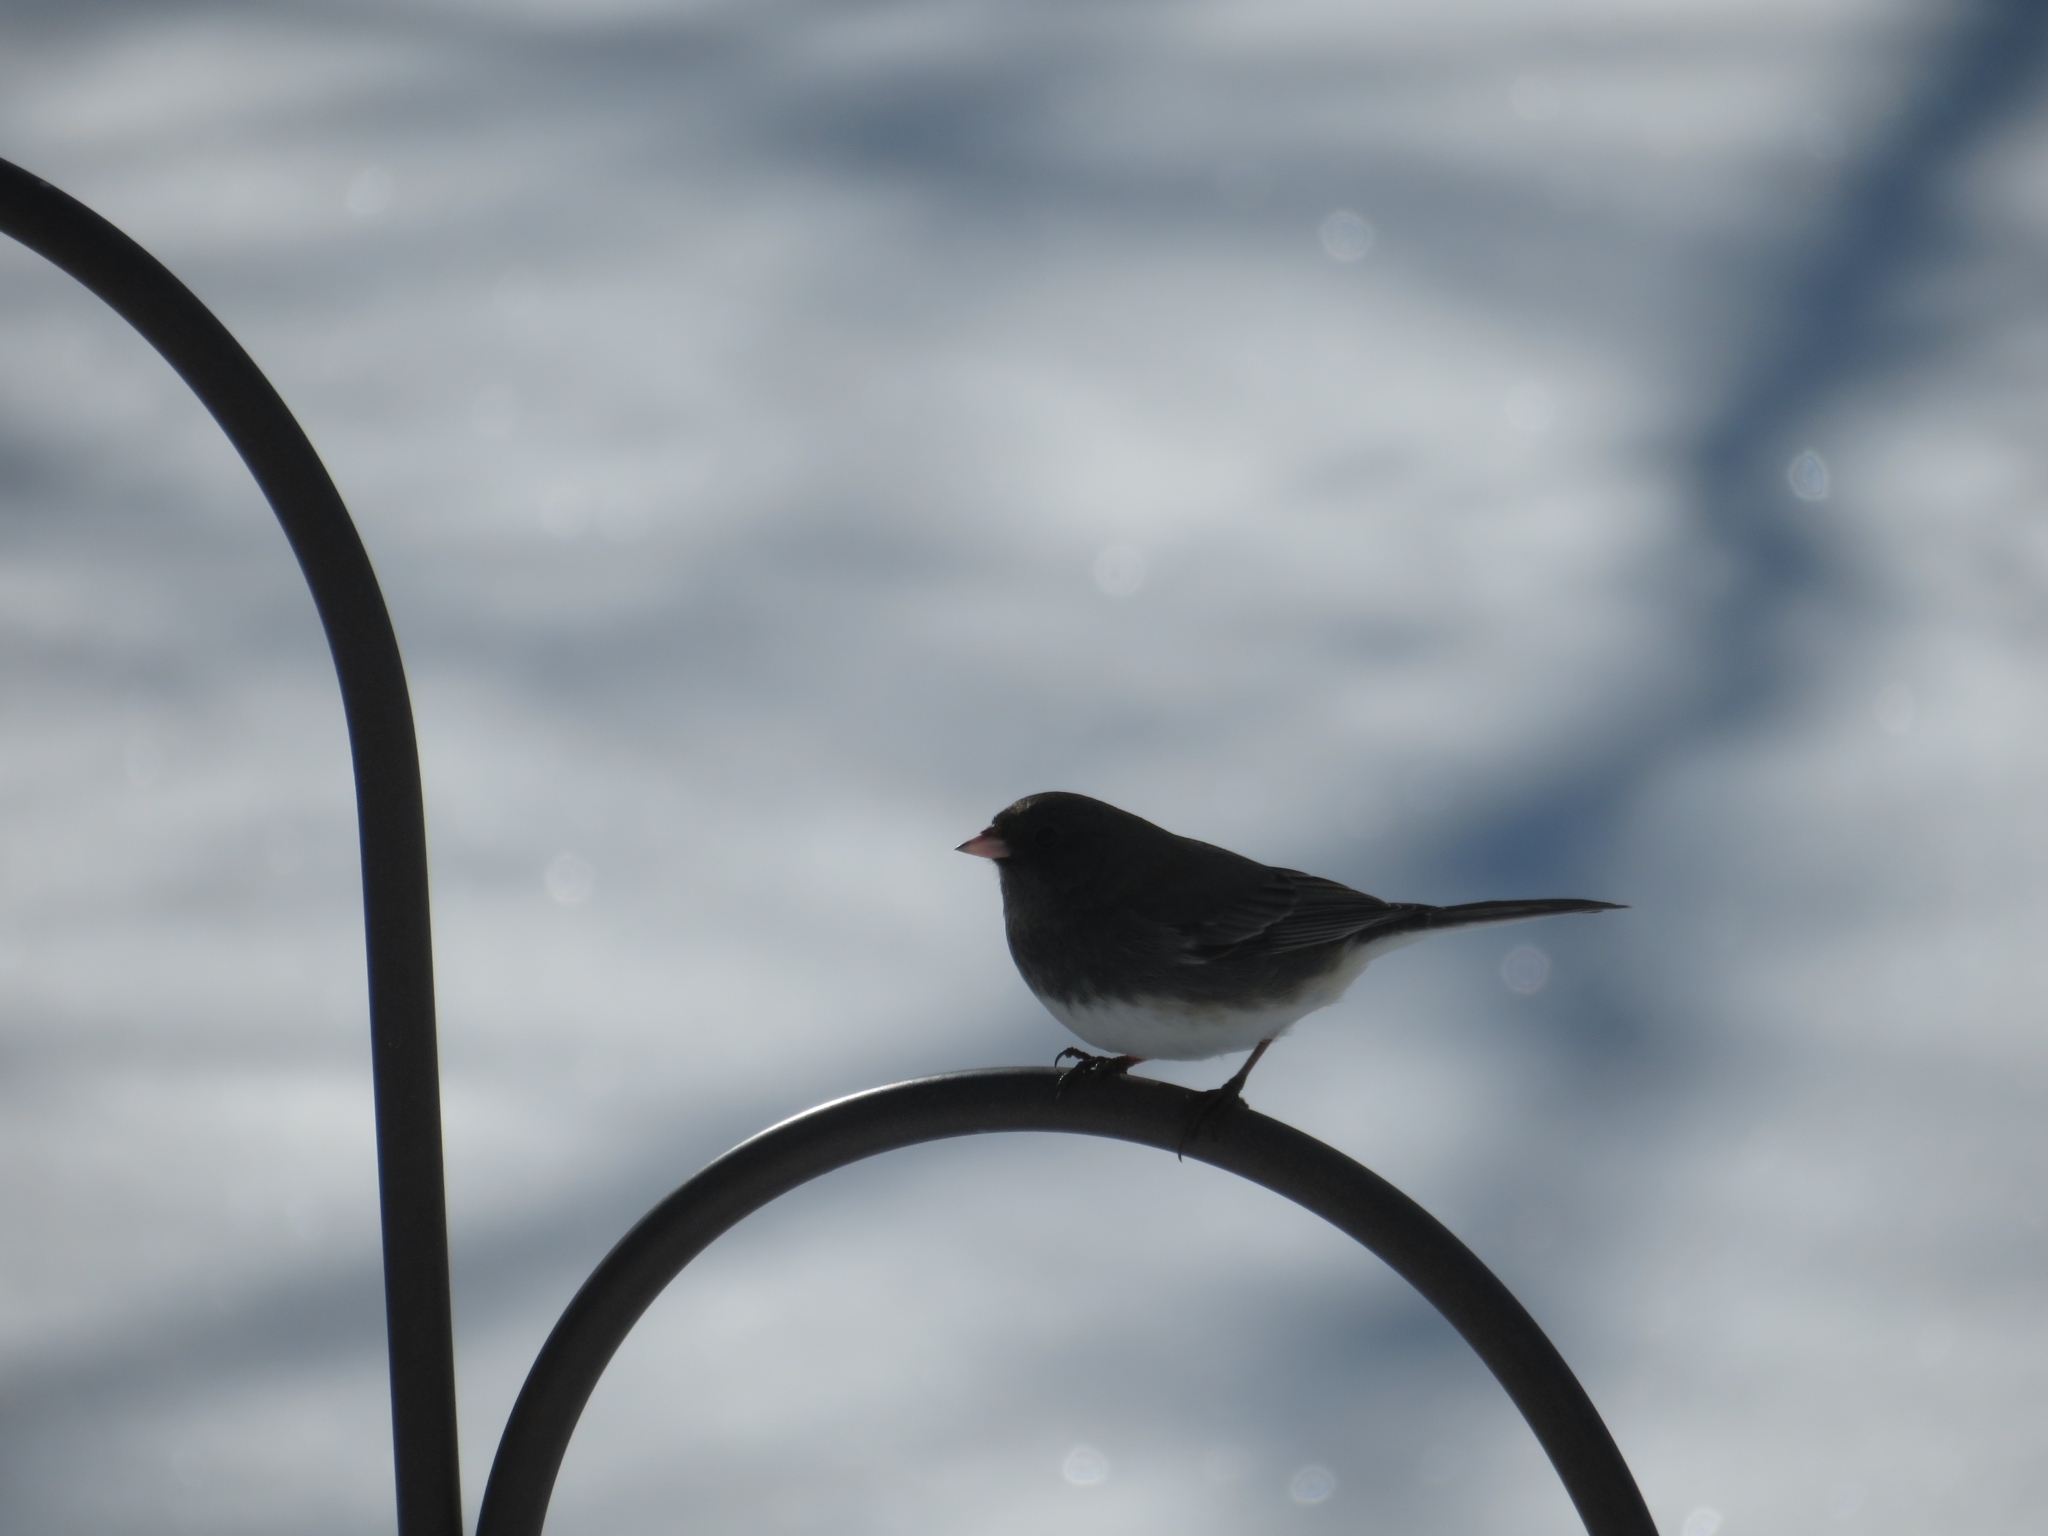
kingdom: Animalia
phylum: Chordata
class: Aves
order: Passeriformes
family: Passerellidae
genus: Junco
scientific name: Junco hyemalis
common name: Dark-eyed junco
